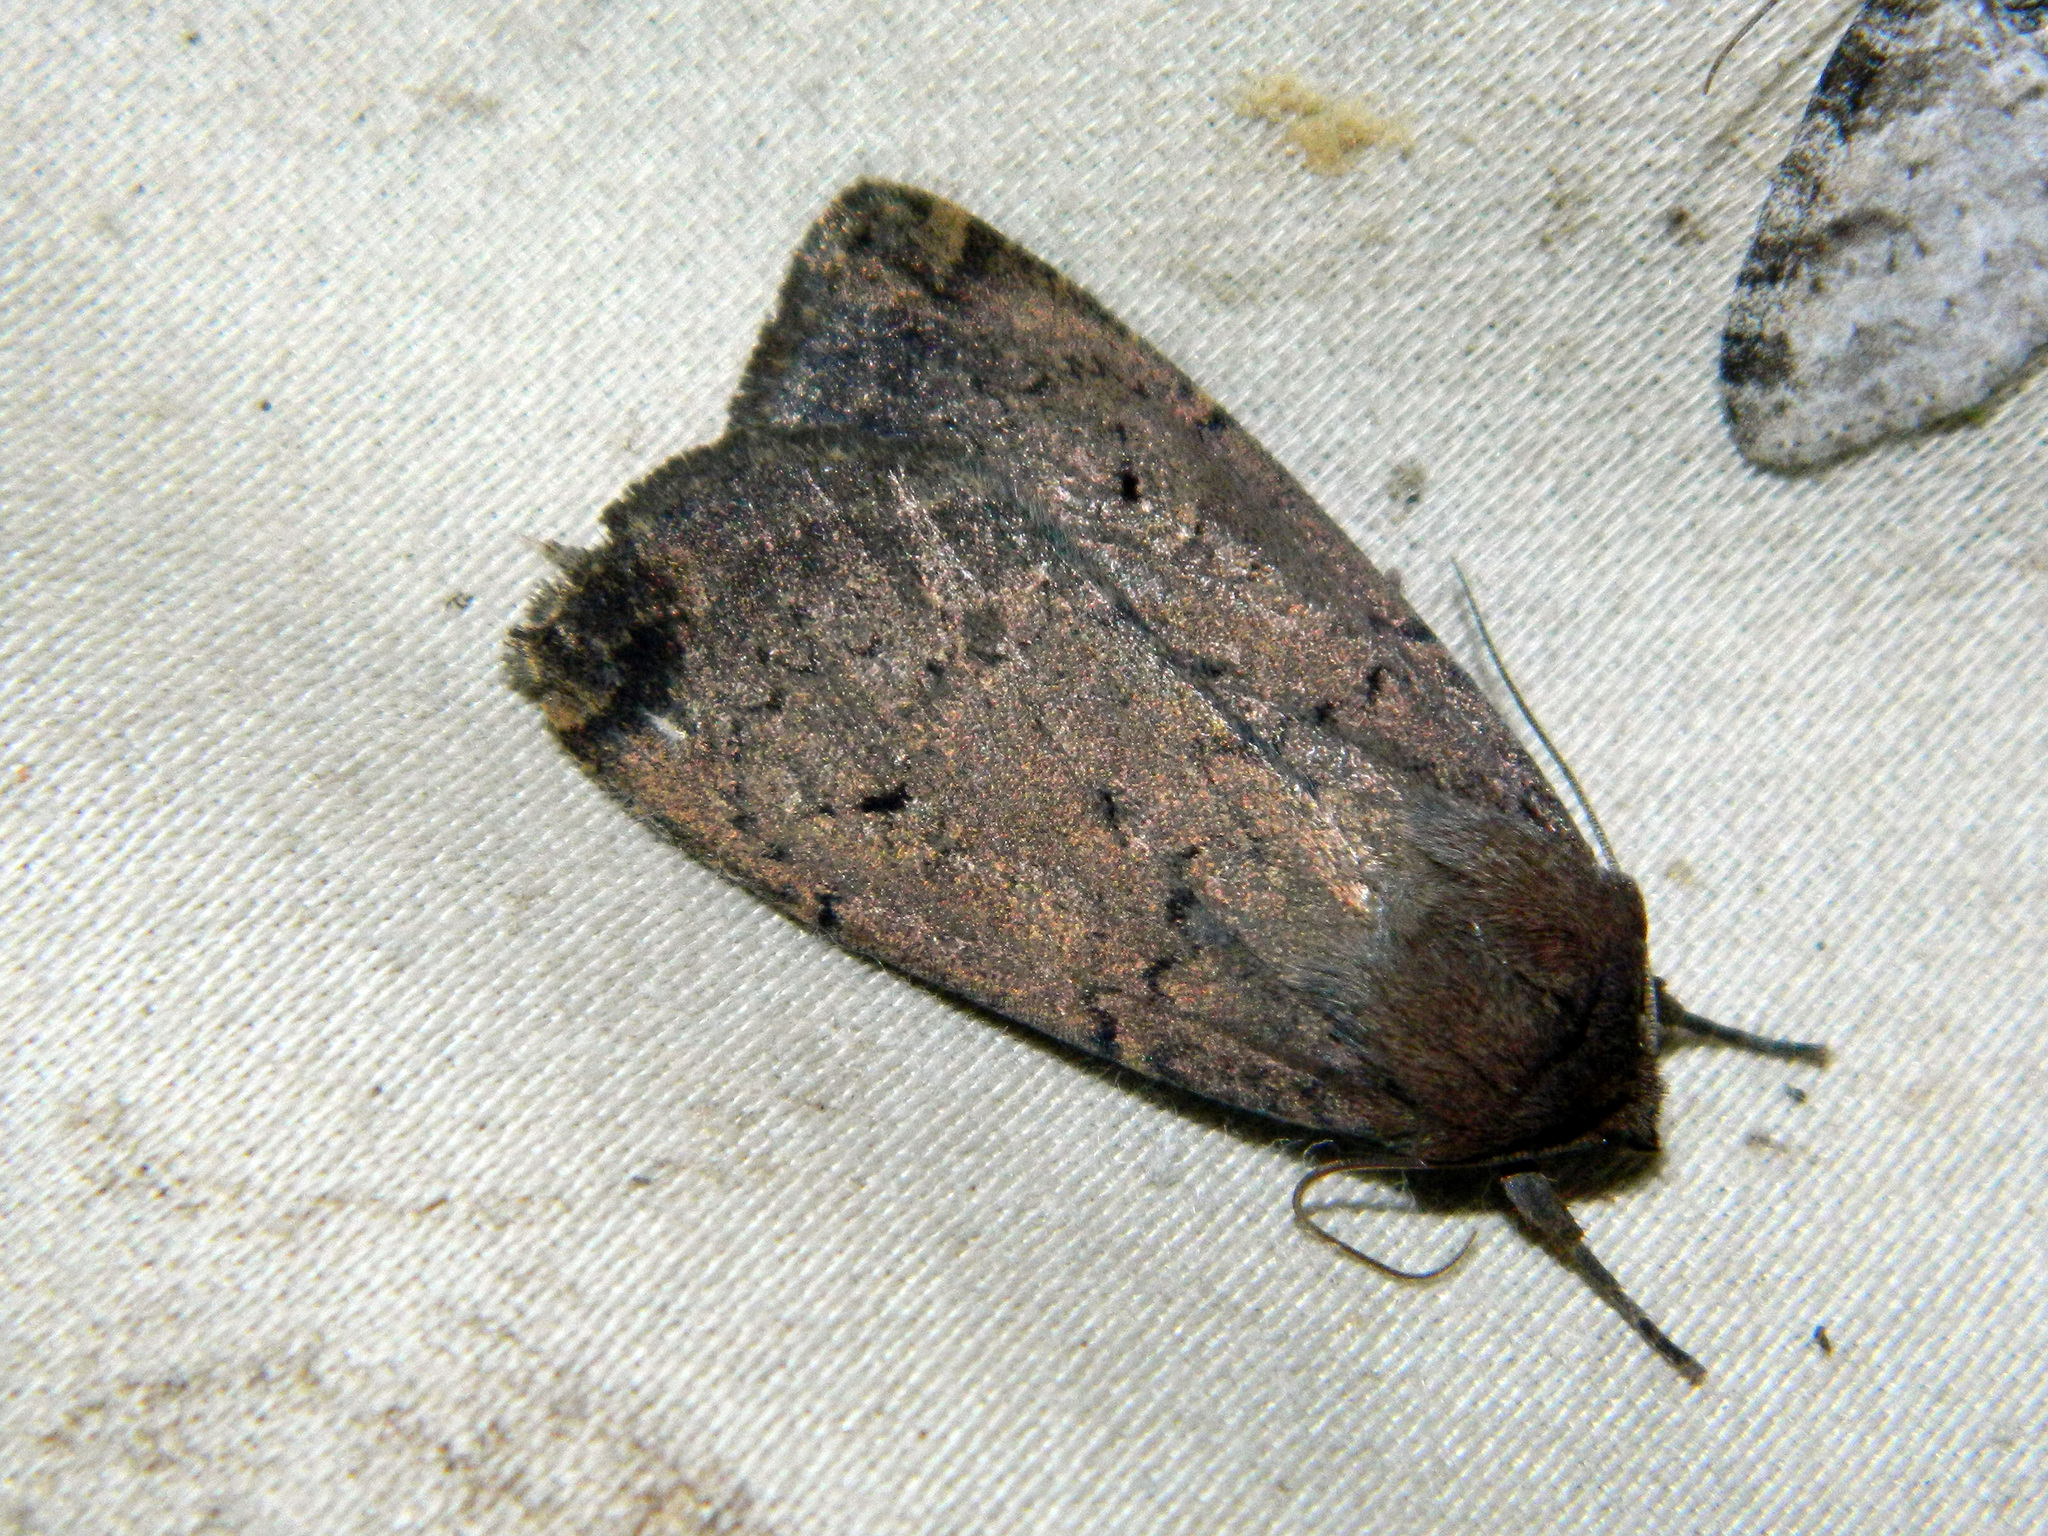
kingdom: Animalia
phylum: Arthropoda
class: Insecta
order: Lepidoptera
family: Noctuidae
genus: Graphiphora
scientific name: Graphiphora augur
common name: Double dart
